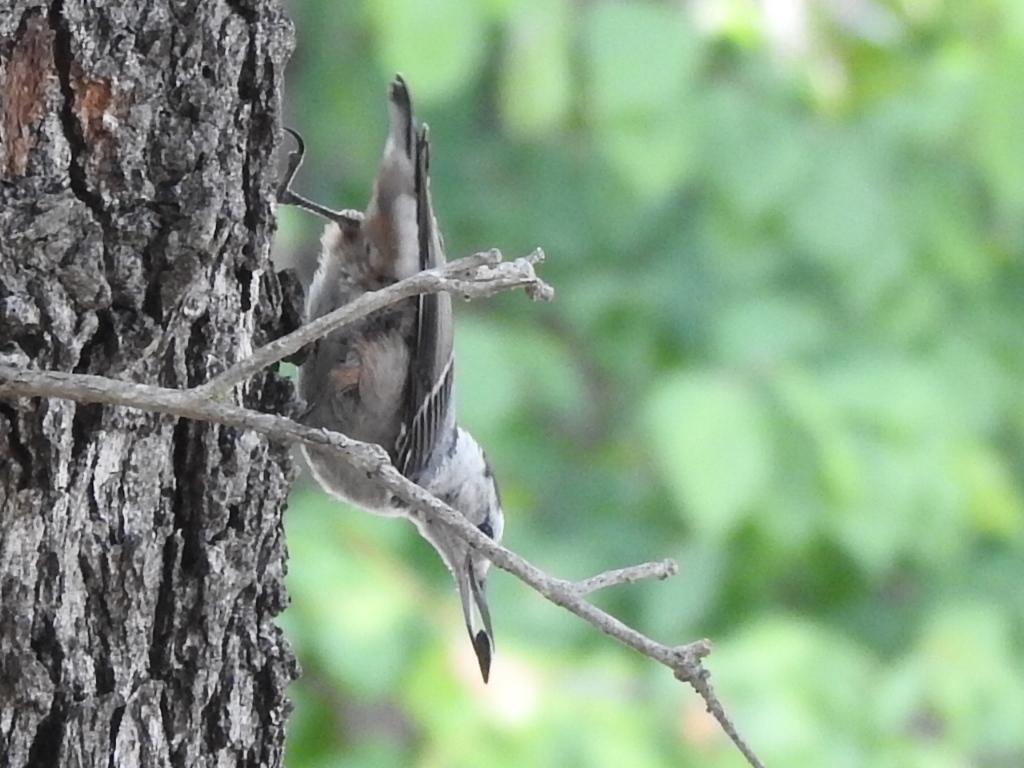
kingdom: Animalia
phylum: Chordata
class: Aves
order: Passeriformes
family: Sittidae
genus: Sitta
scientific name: Sitta carolinensis
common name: White-breasted nuthatch
